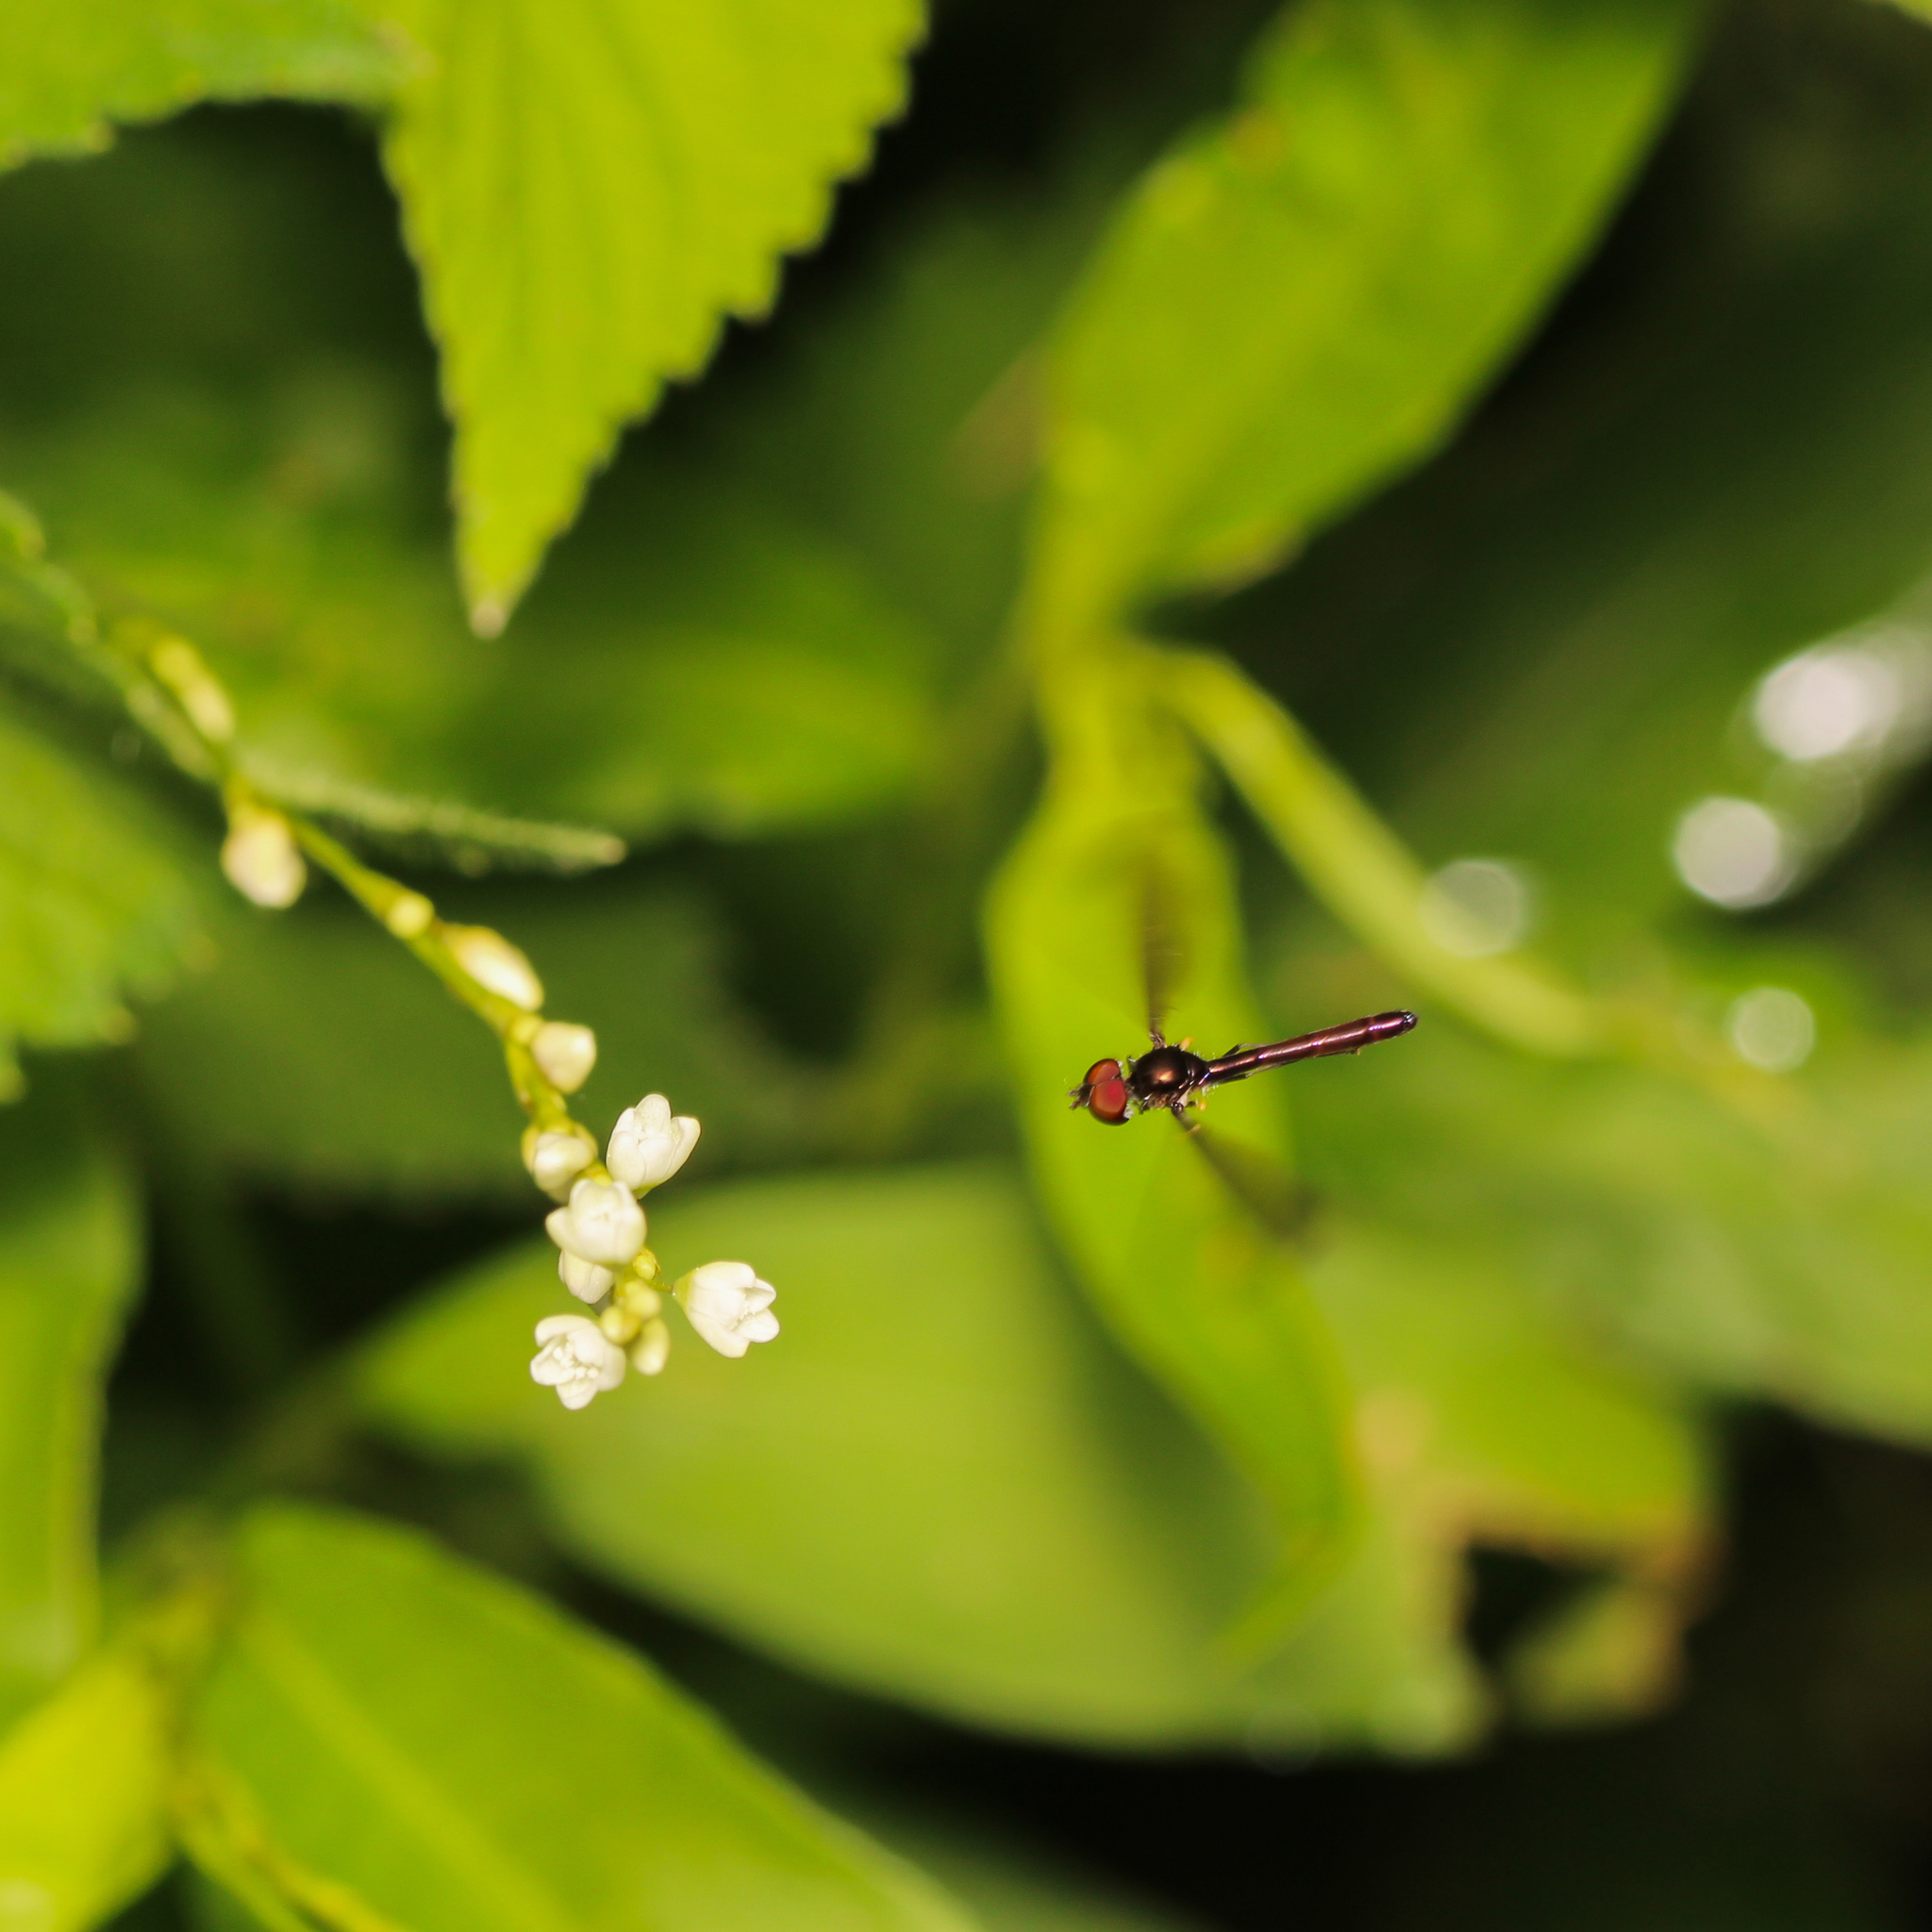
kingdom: Animalia
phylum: Arthropoda
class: Insecta
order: Diptera
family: Syrphidae
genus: Ocyptamus
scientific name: Ocyptamus fuscipennis
